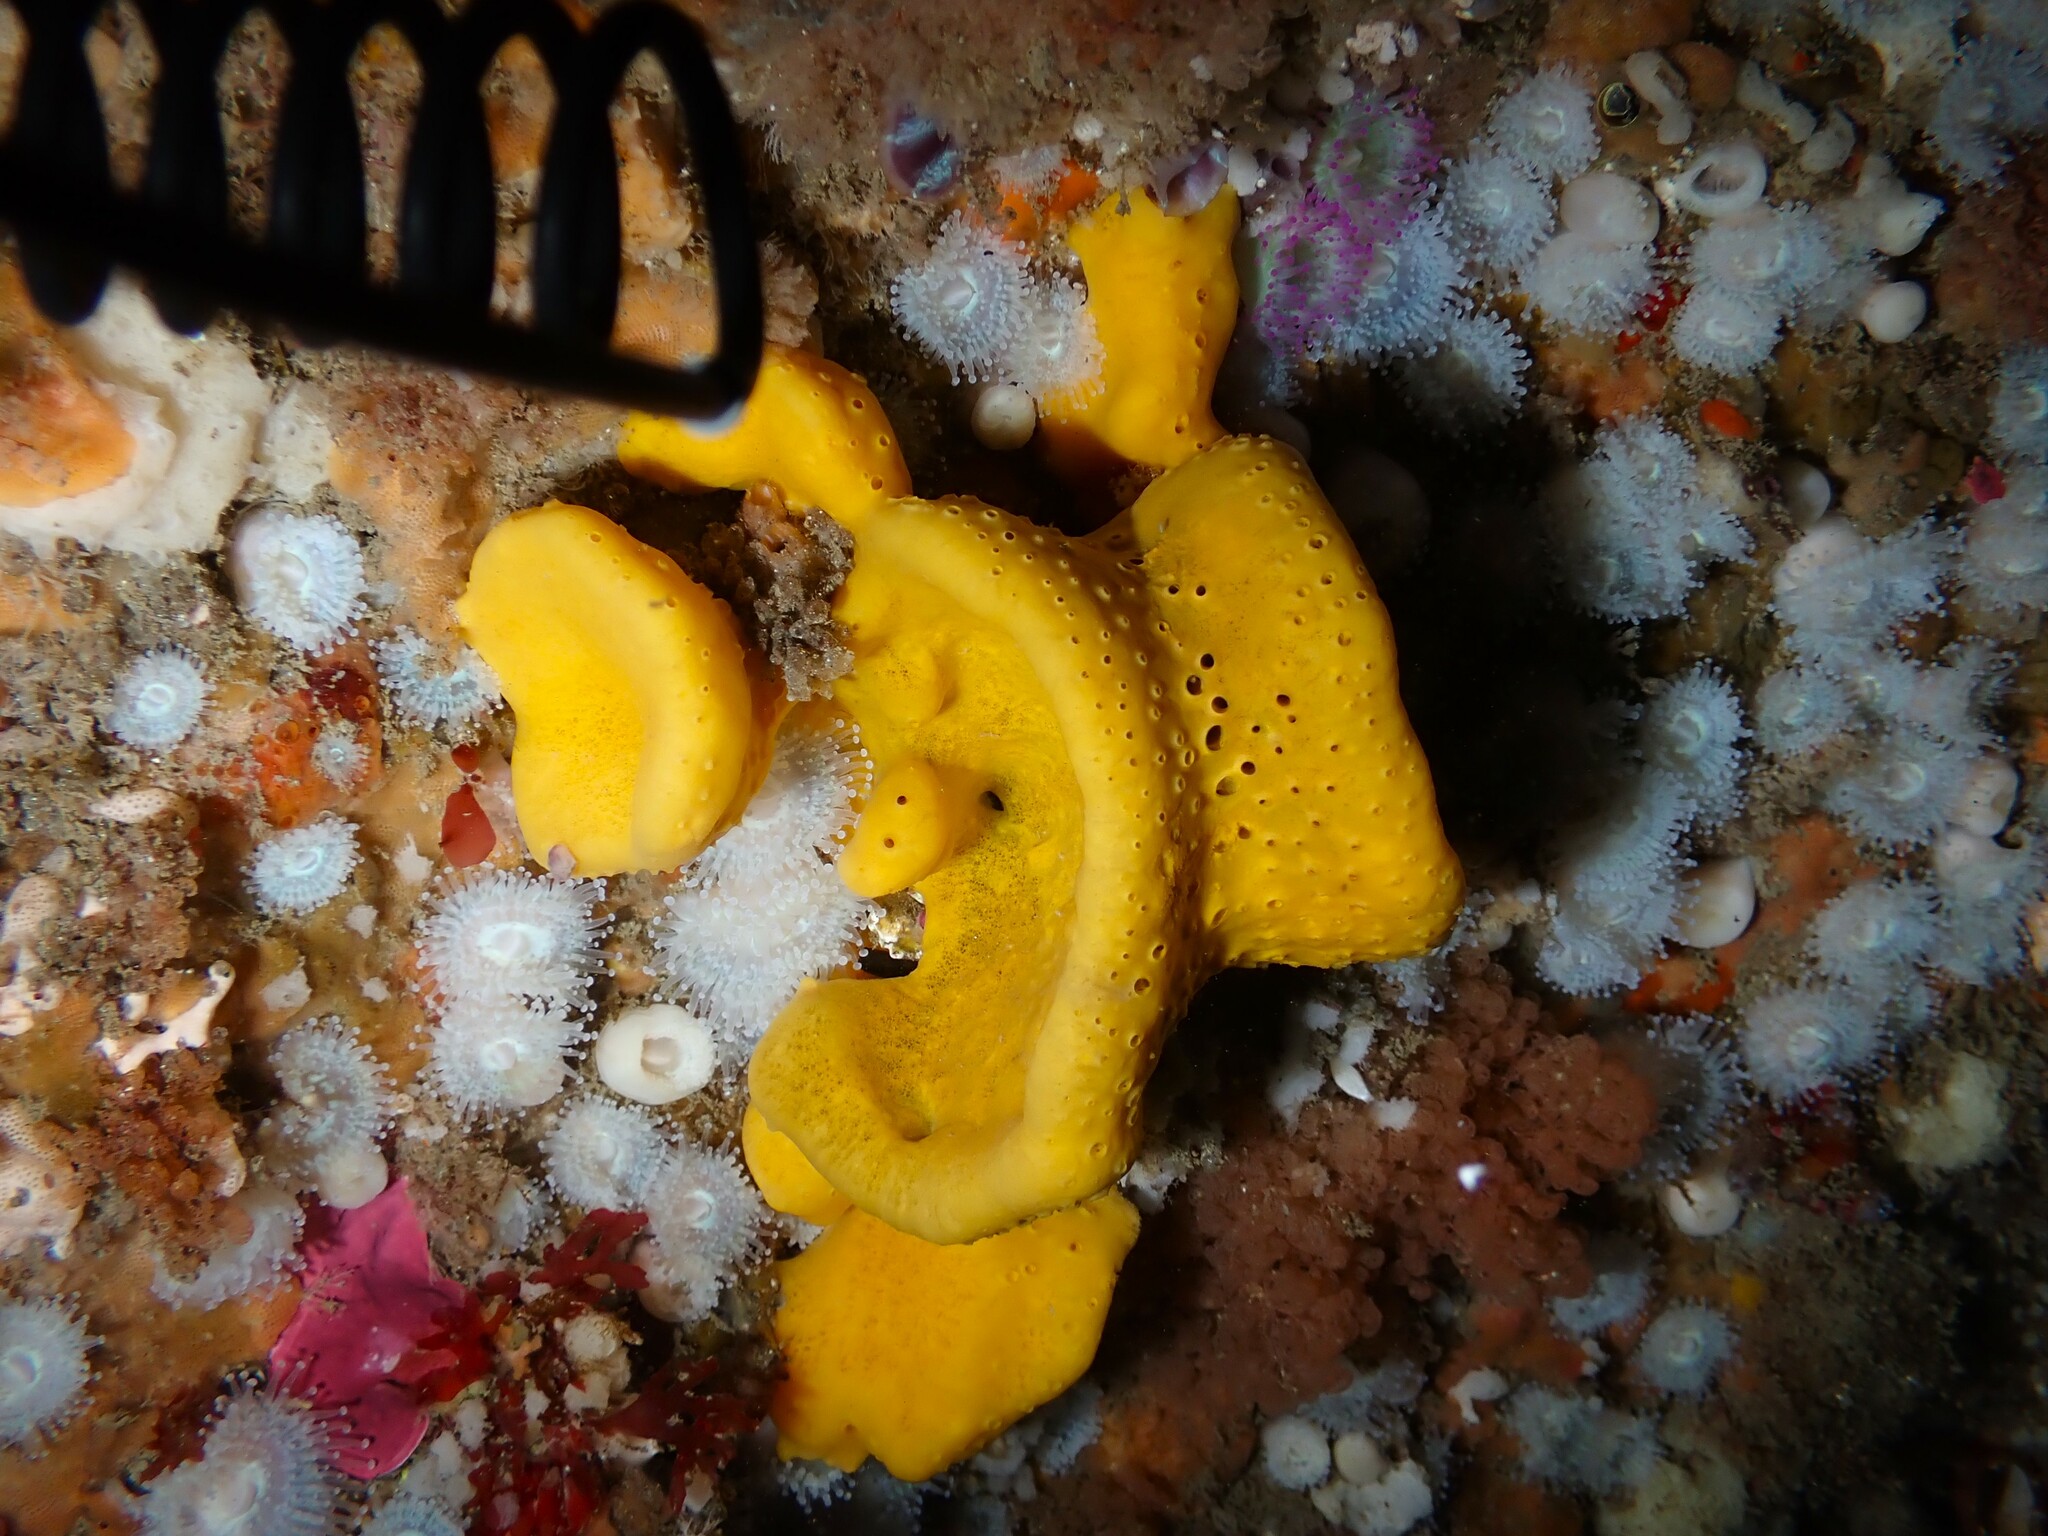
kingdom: Animalia
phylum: Porifera
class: Demospongiae
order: Poecilosclerida
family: Acarnidae
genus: Iophon
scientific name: Iophon minor
